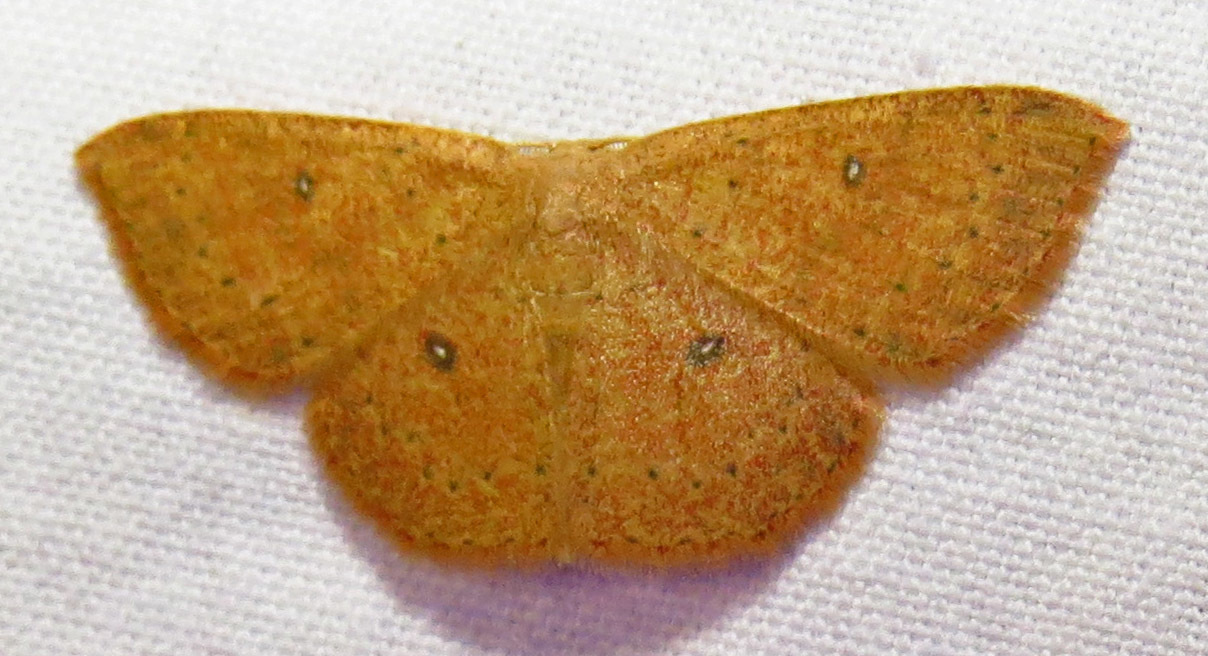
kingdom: Animalia
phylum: Arthropoda
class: Insecta
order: Lepidoptera
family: Geometridae
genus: Cyclophora
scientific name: Cyclophora packardi
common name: Packard's wave
